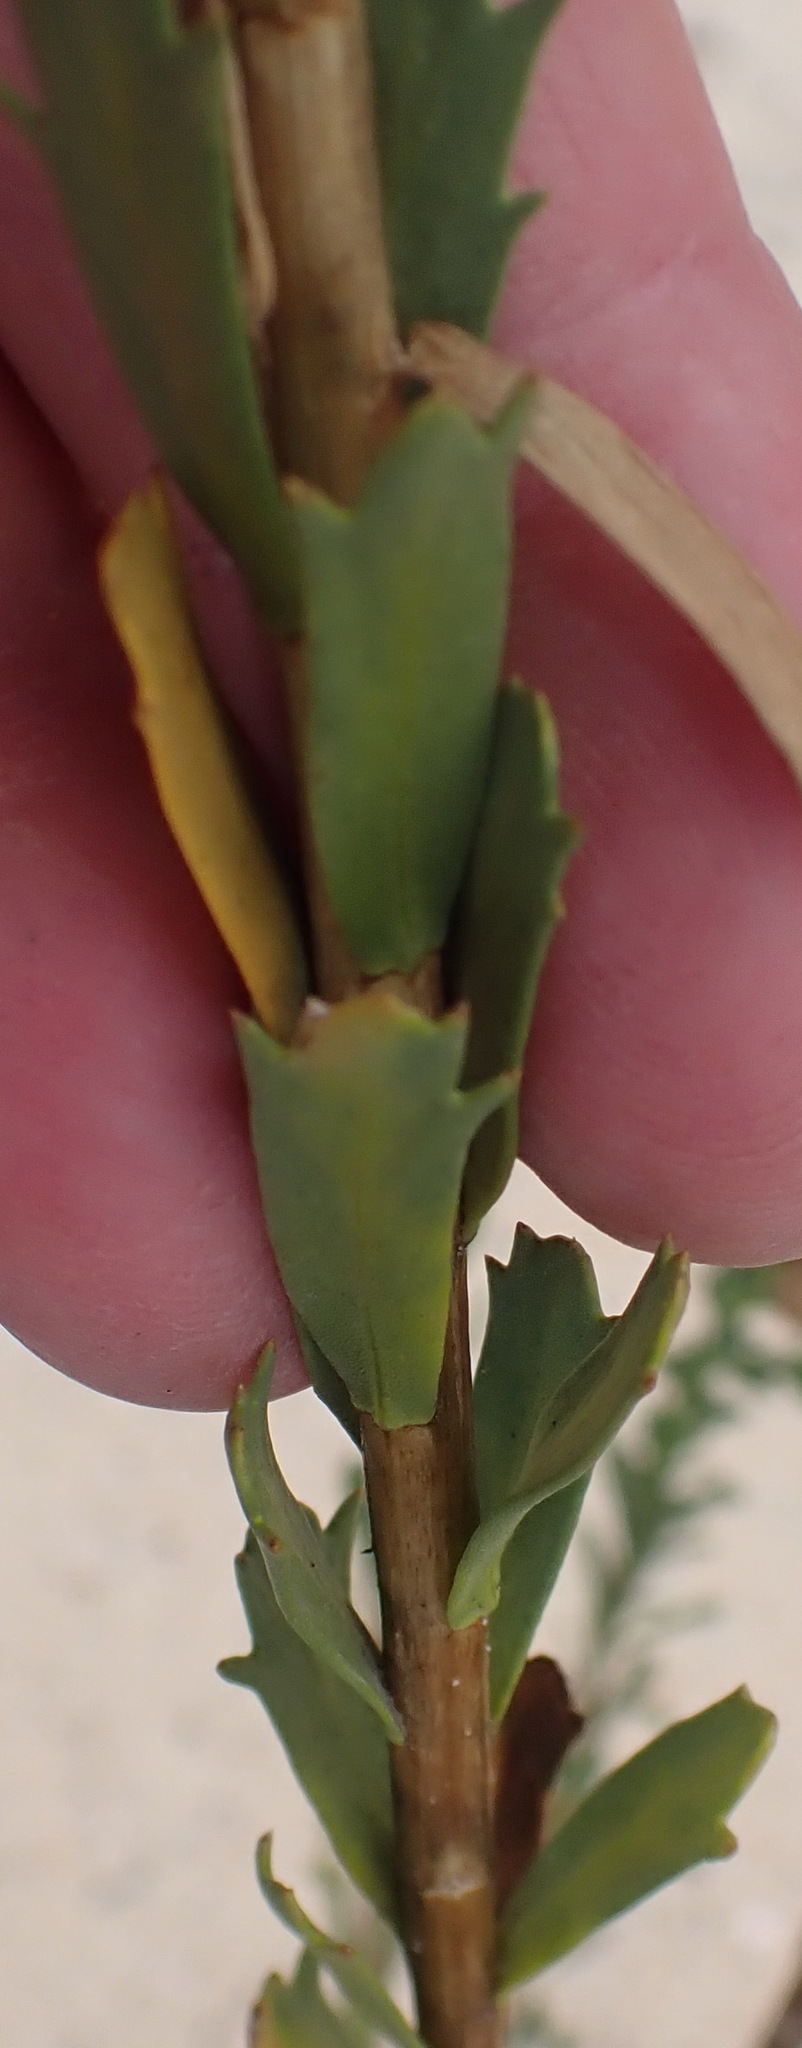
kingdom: Plantae
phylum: Tracheophyta
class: Magnoliopsida
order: Asterales
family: Asteraceae
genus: Athanasia
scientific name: Athanasia trifurcata
